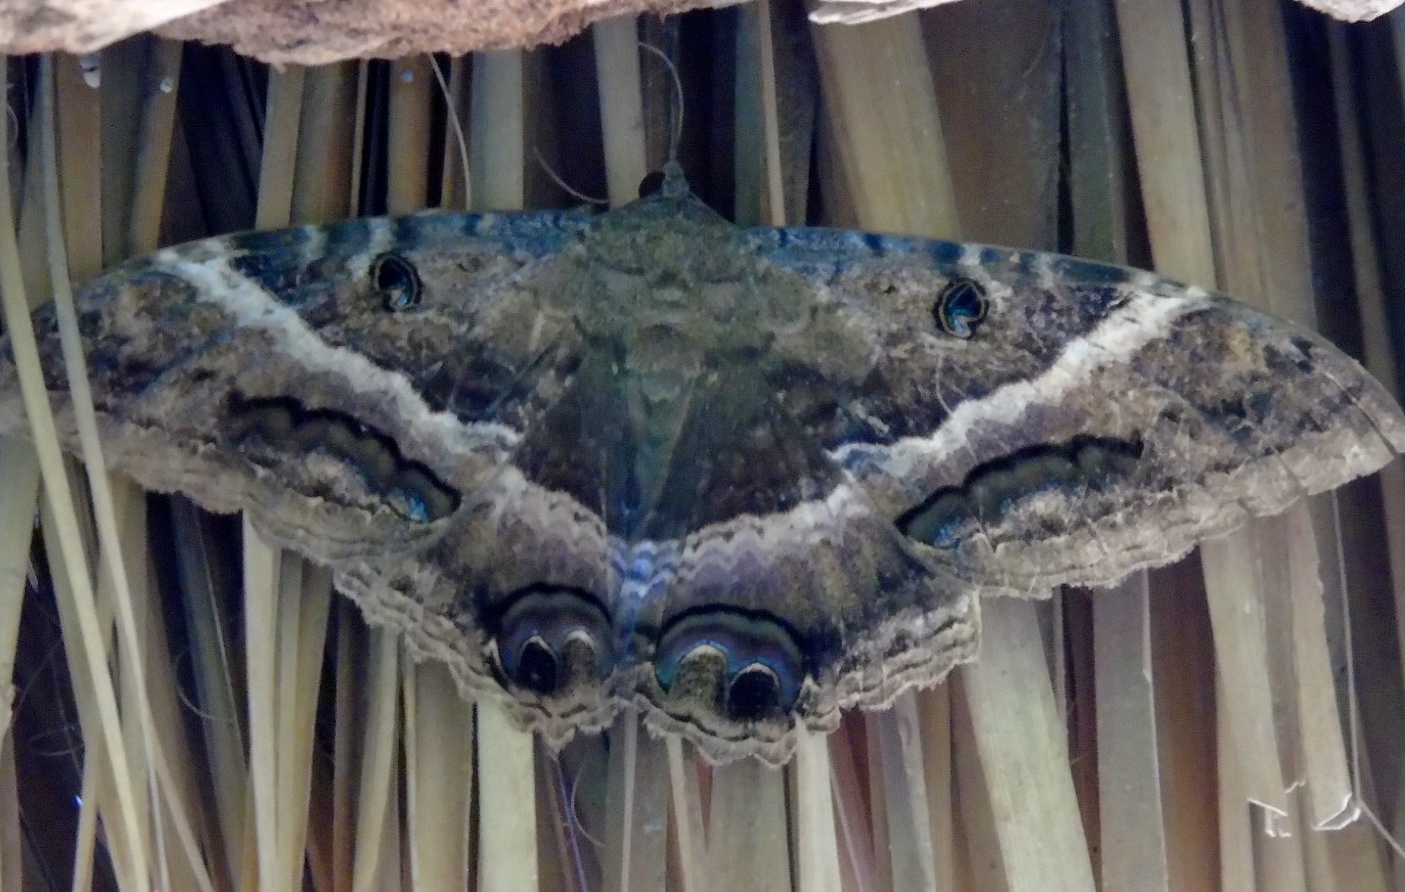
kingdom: Animalia
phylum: Arthropoda
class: Insecta
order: Lepidoptera
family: Erebidae
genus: Ascalapha
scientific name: Ascalapha odorata
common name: Black witch
